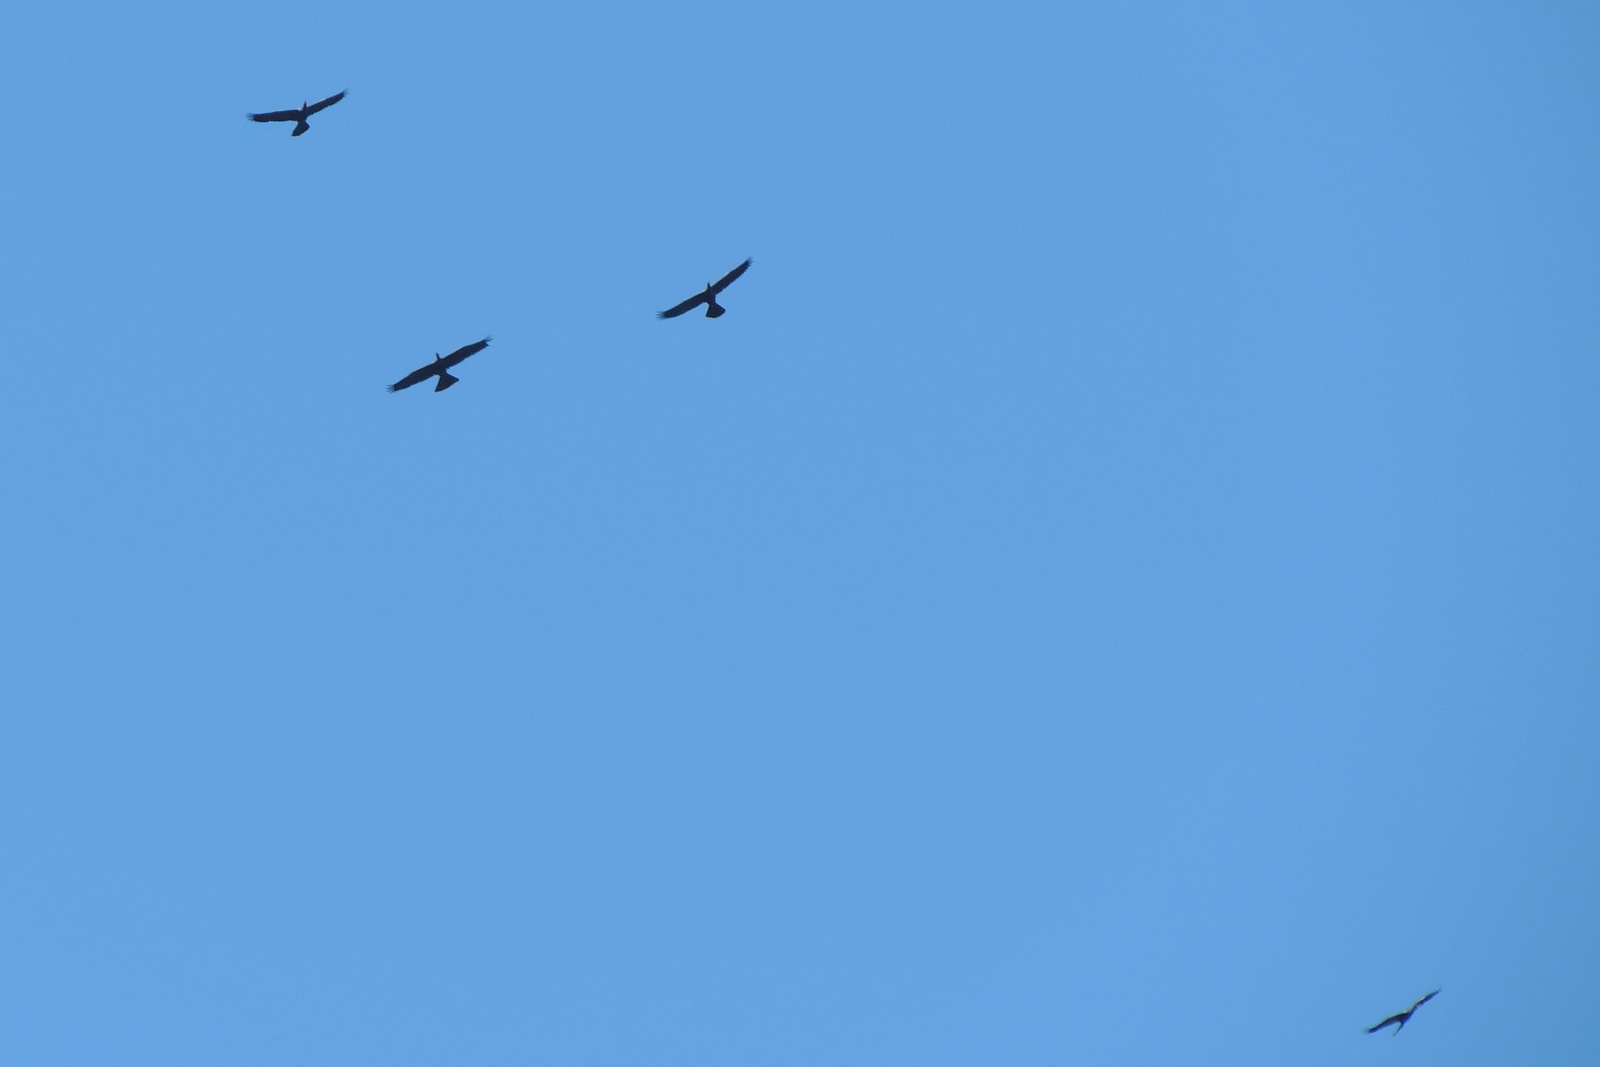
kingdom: Animalia
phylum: Chordata
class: Aves
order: Suliformes
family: Anhingidae
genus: Anhinga
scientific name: Anhinga anhinga
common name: Anhinga
